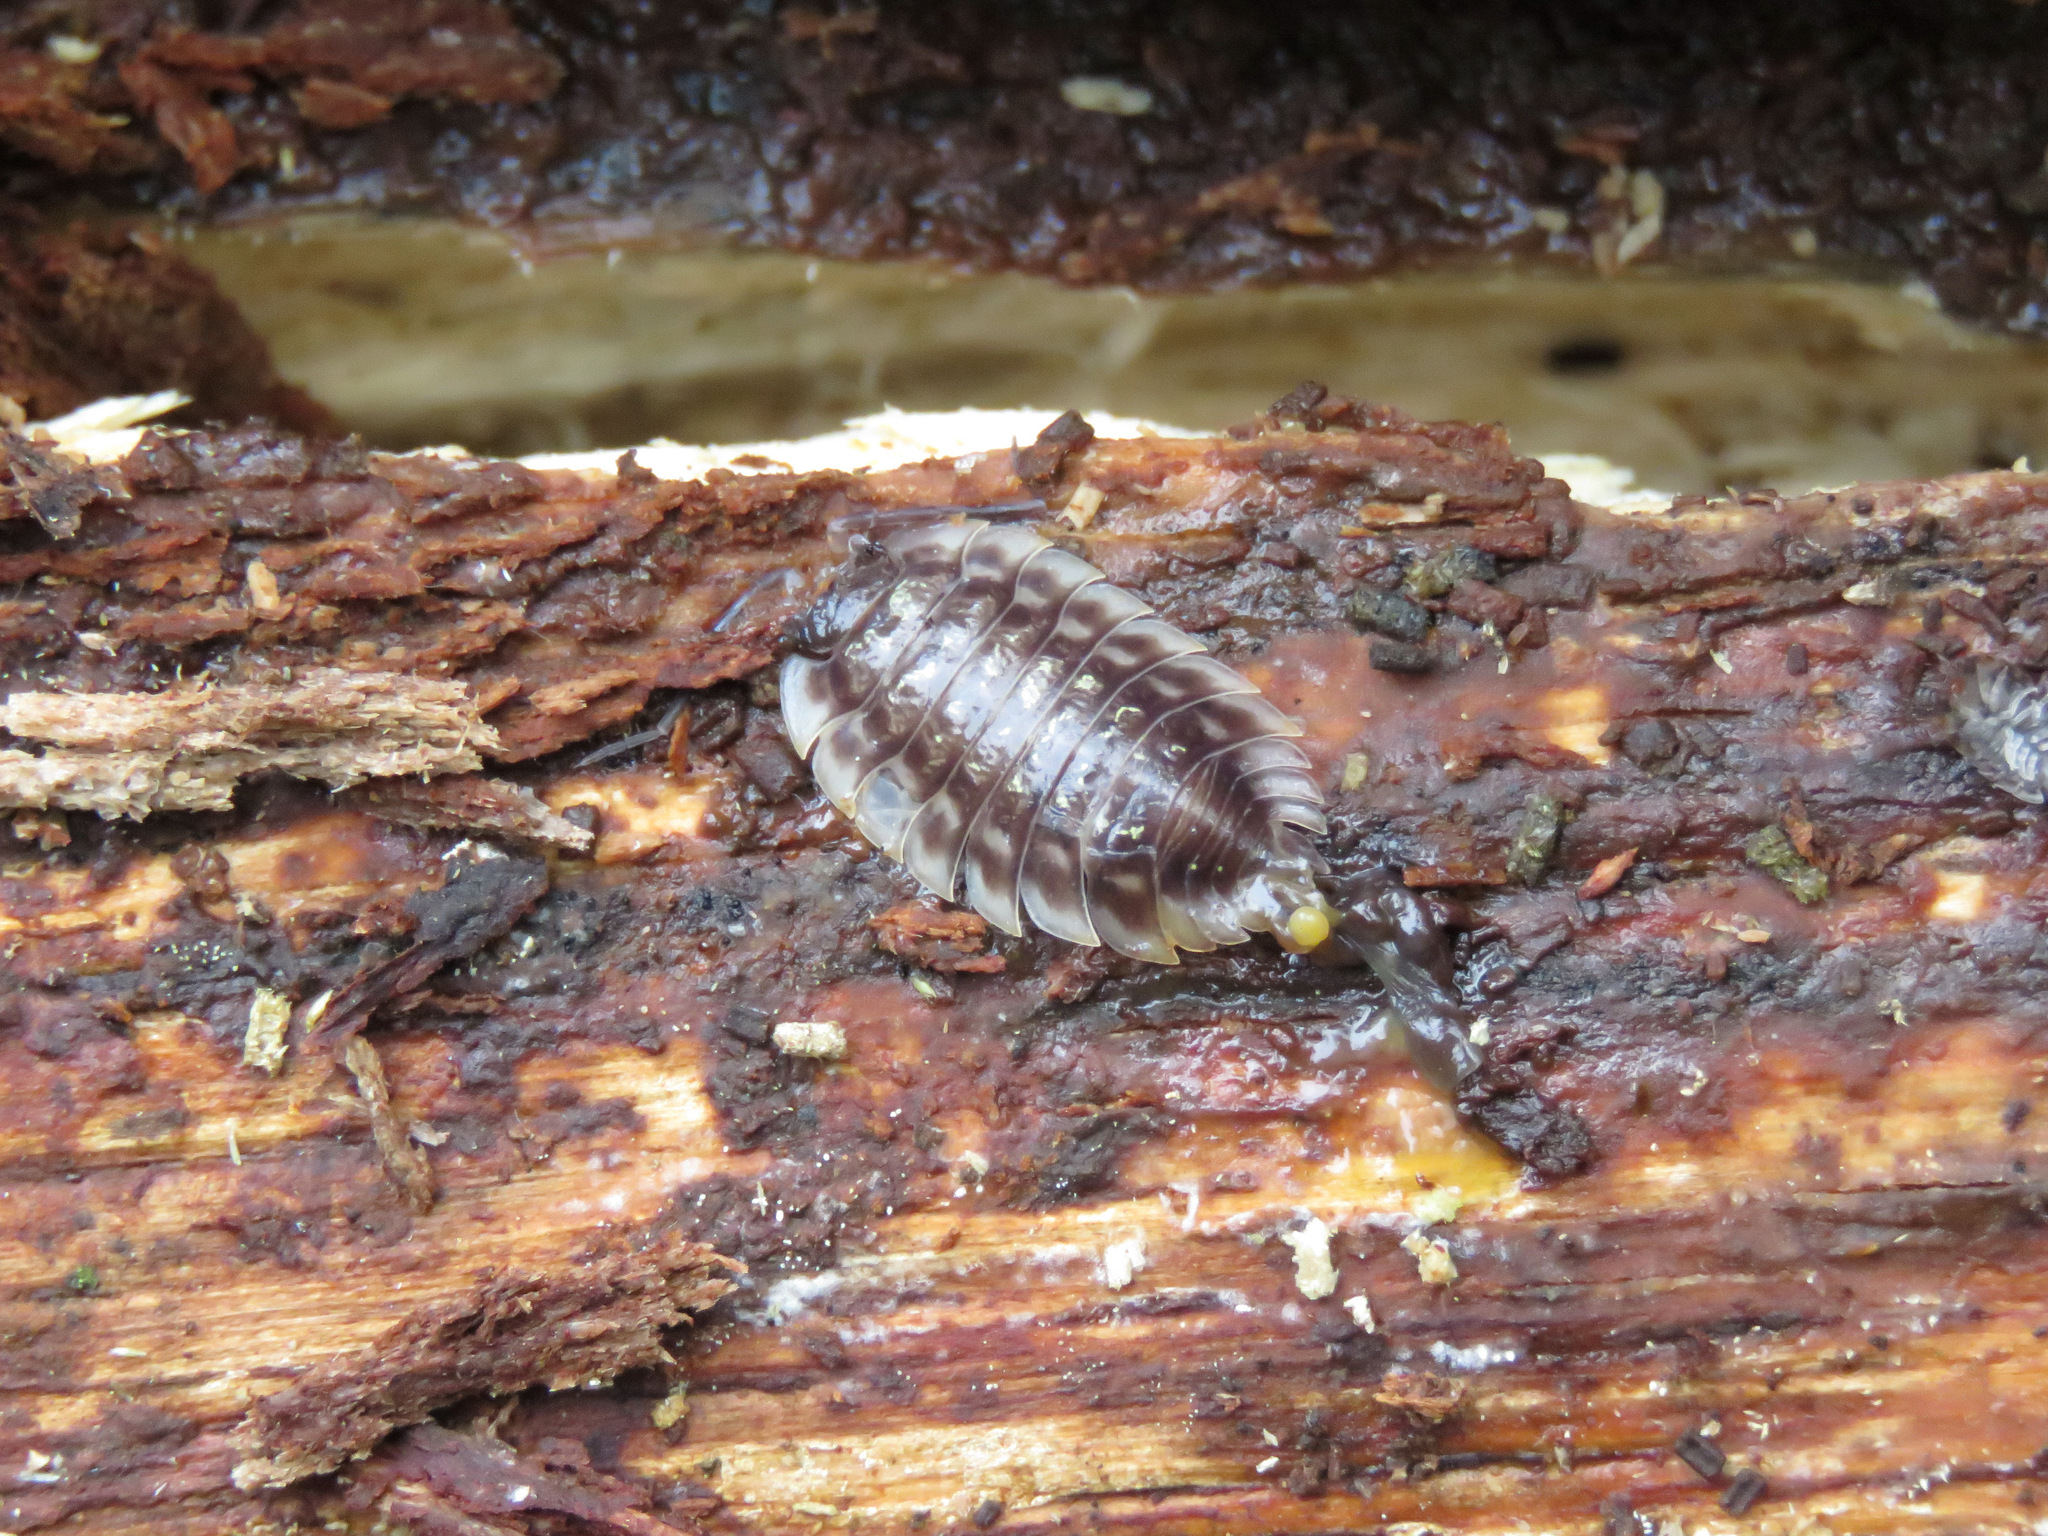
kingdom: Animalia
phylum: Arthropoda
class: Malacostraca
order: Isopoda
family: Oniscidae
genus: Oniscus
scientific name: Oniscus asellus
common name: Common shiny woodlouse
